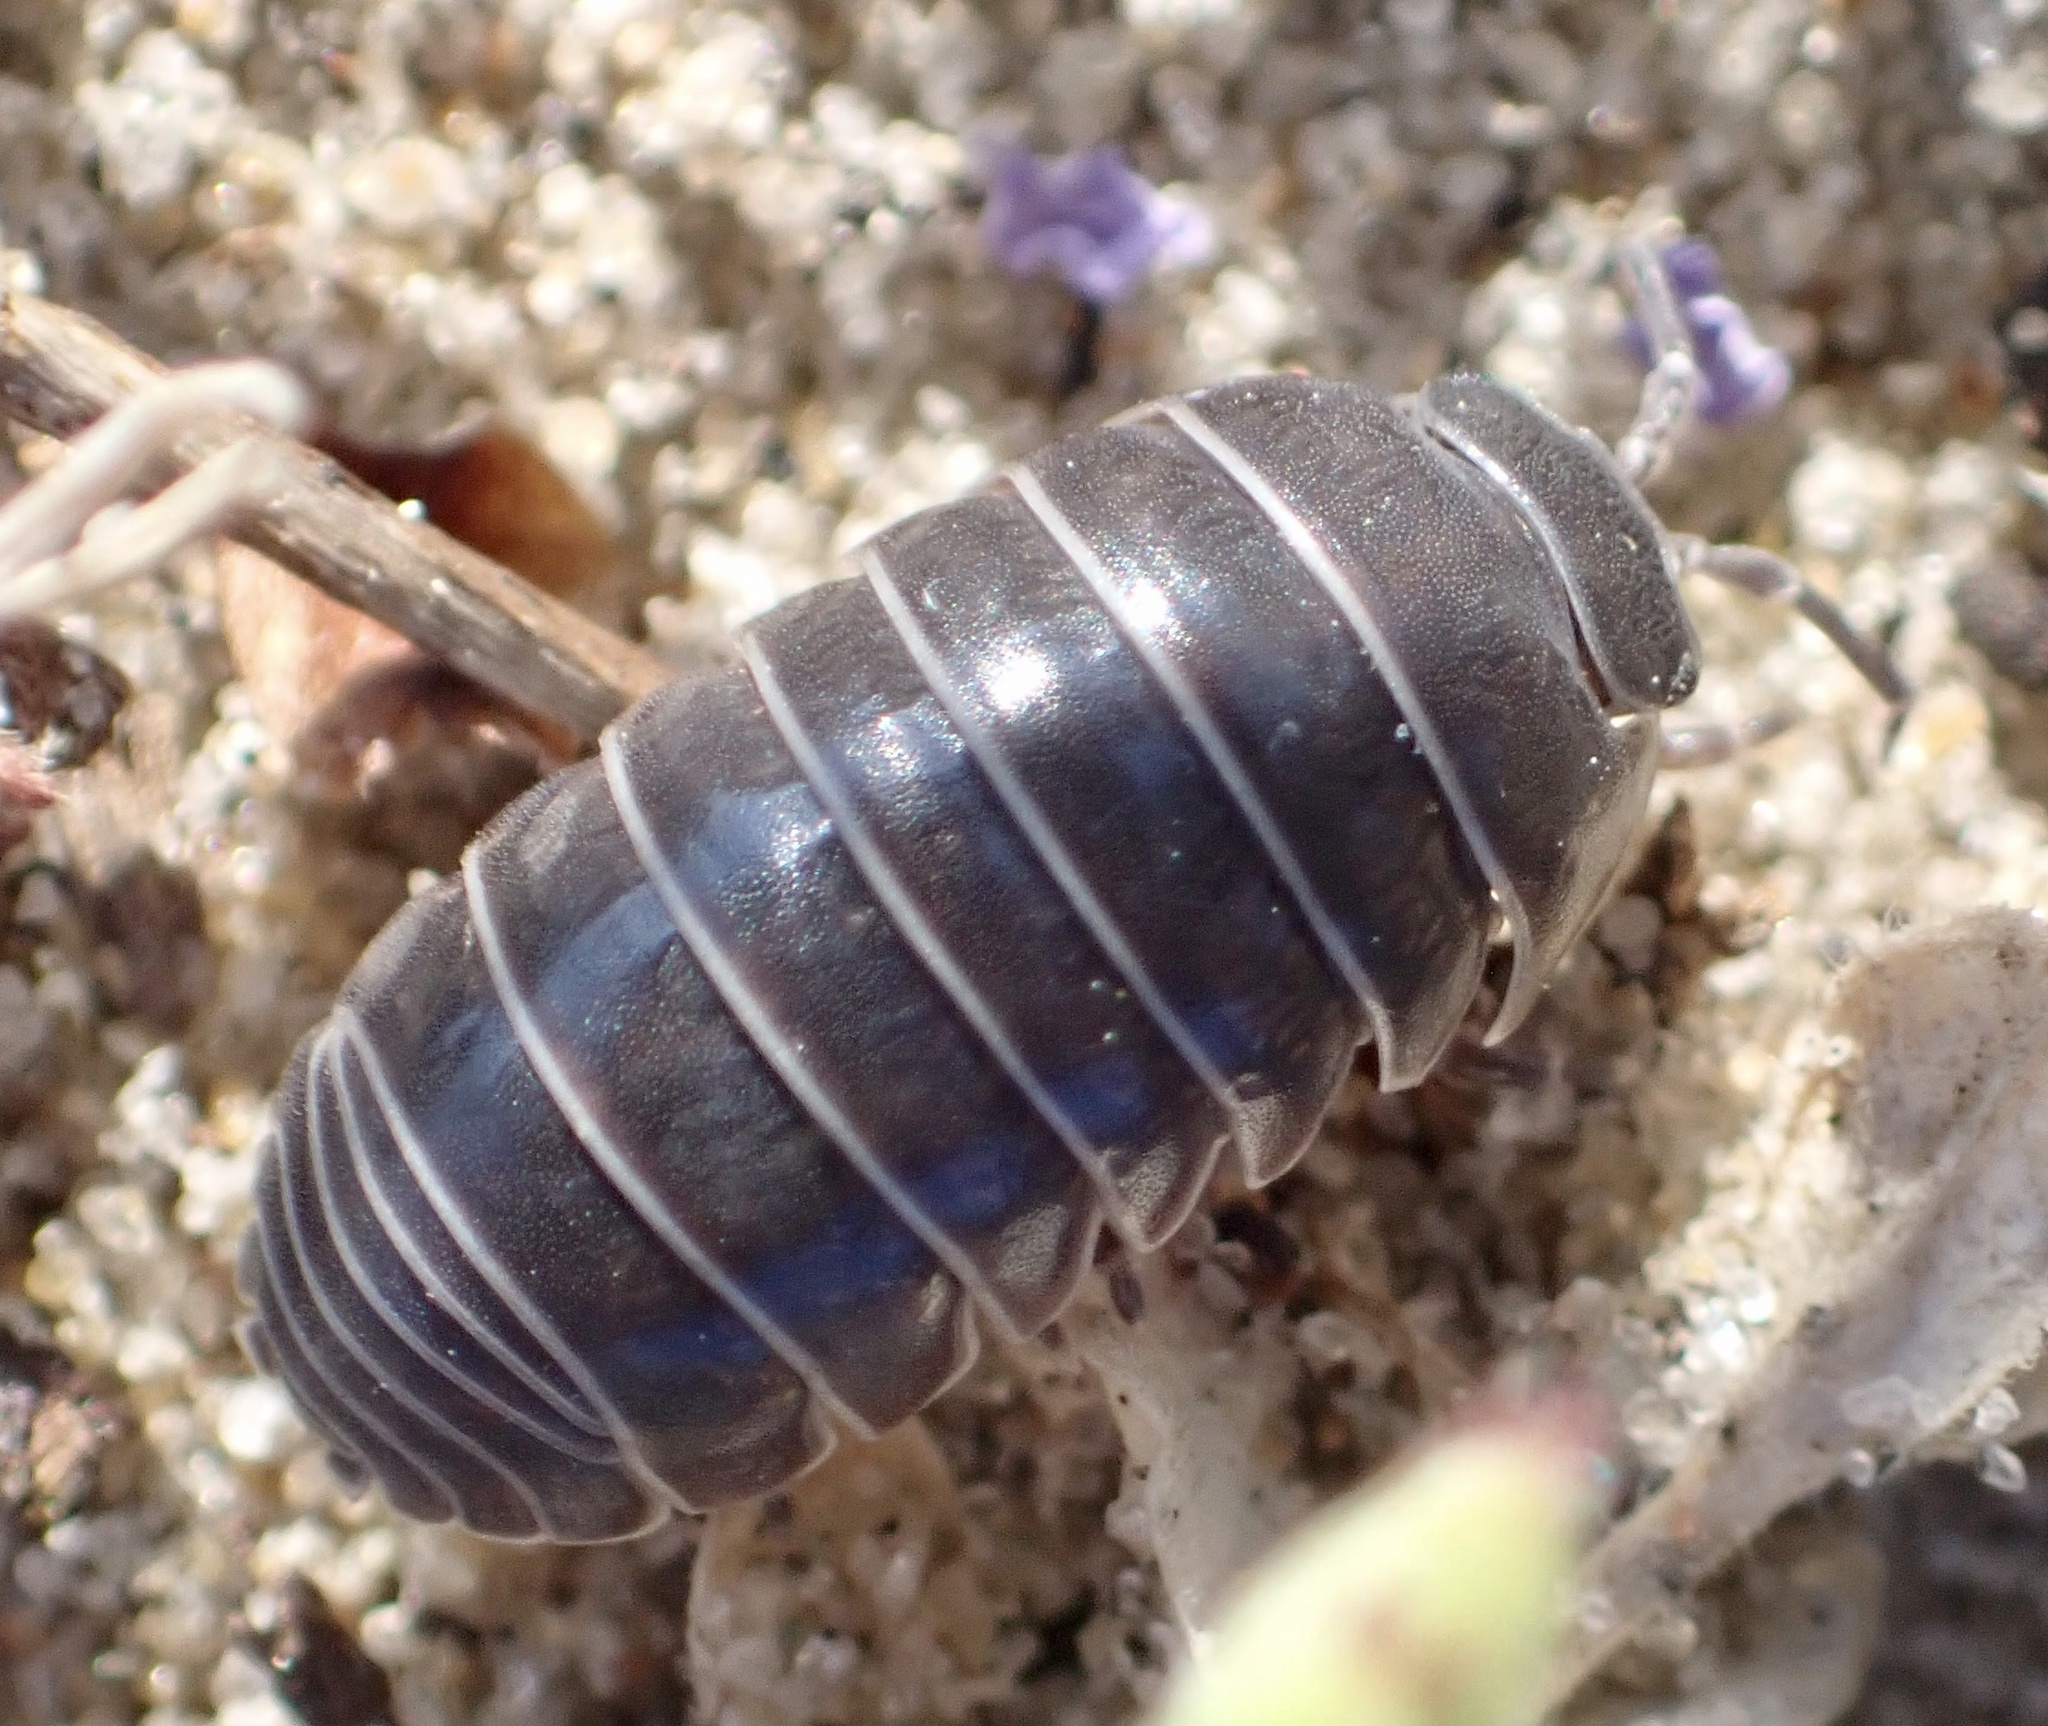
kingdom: Animalia
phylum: Arthropoda
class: Malacostraca
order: Isopoda
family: Armadillidiidae
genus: Armadillidium
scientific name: Armadillidium vulgare
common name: Common pill woodlouse
